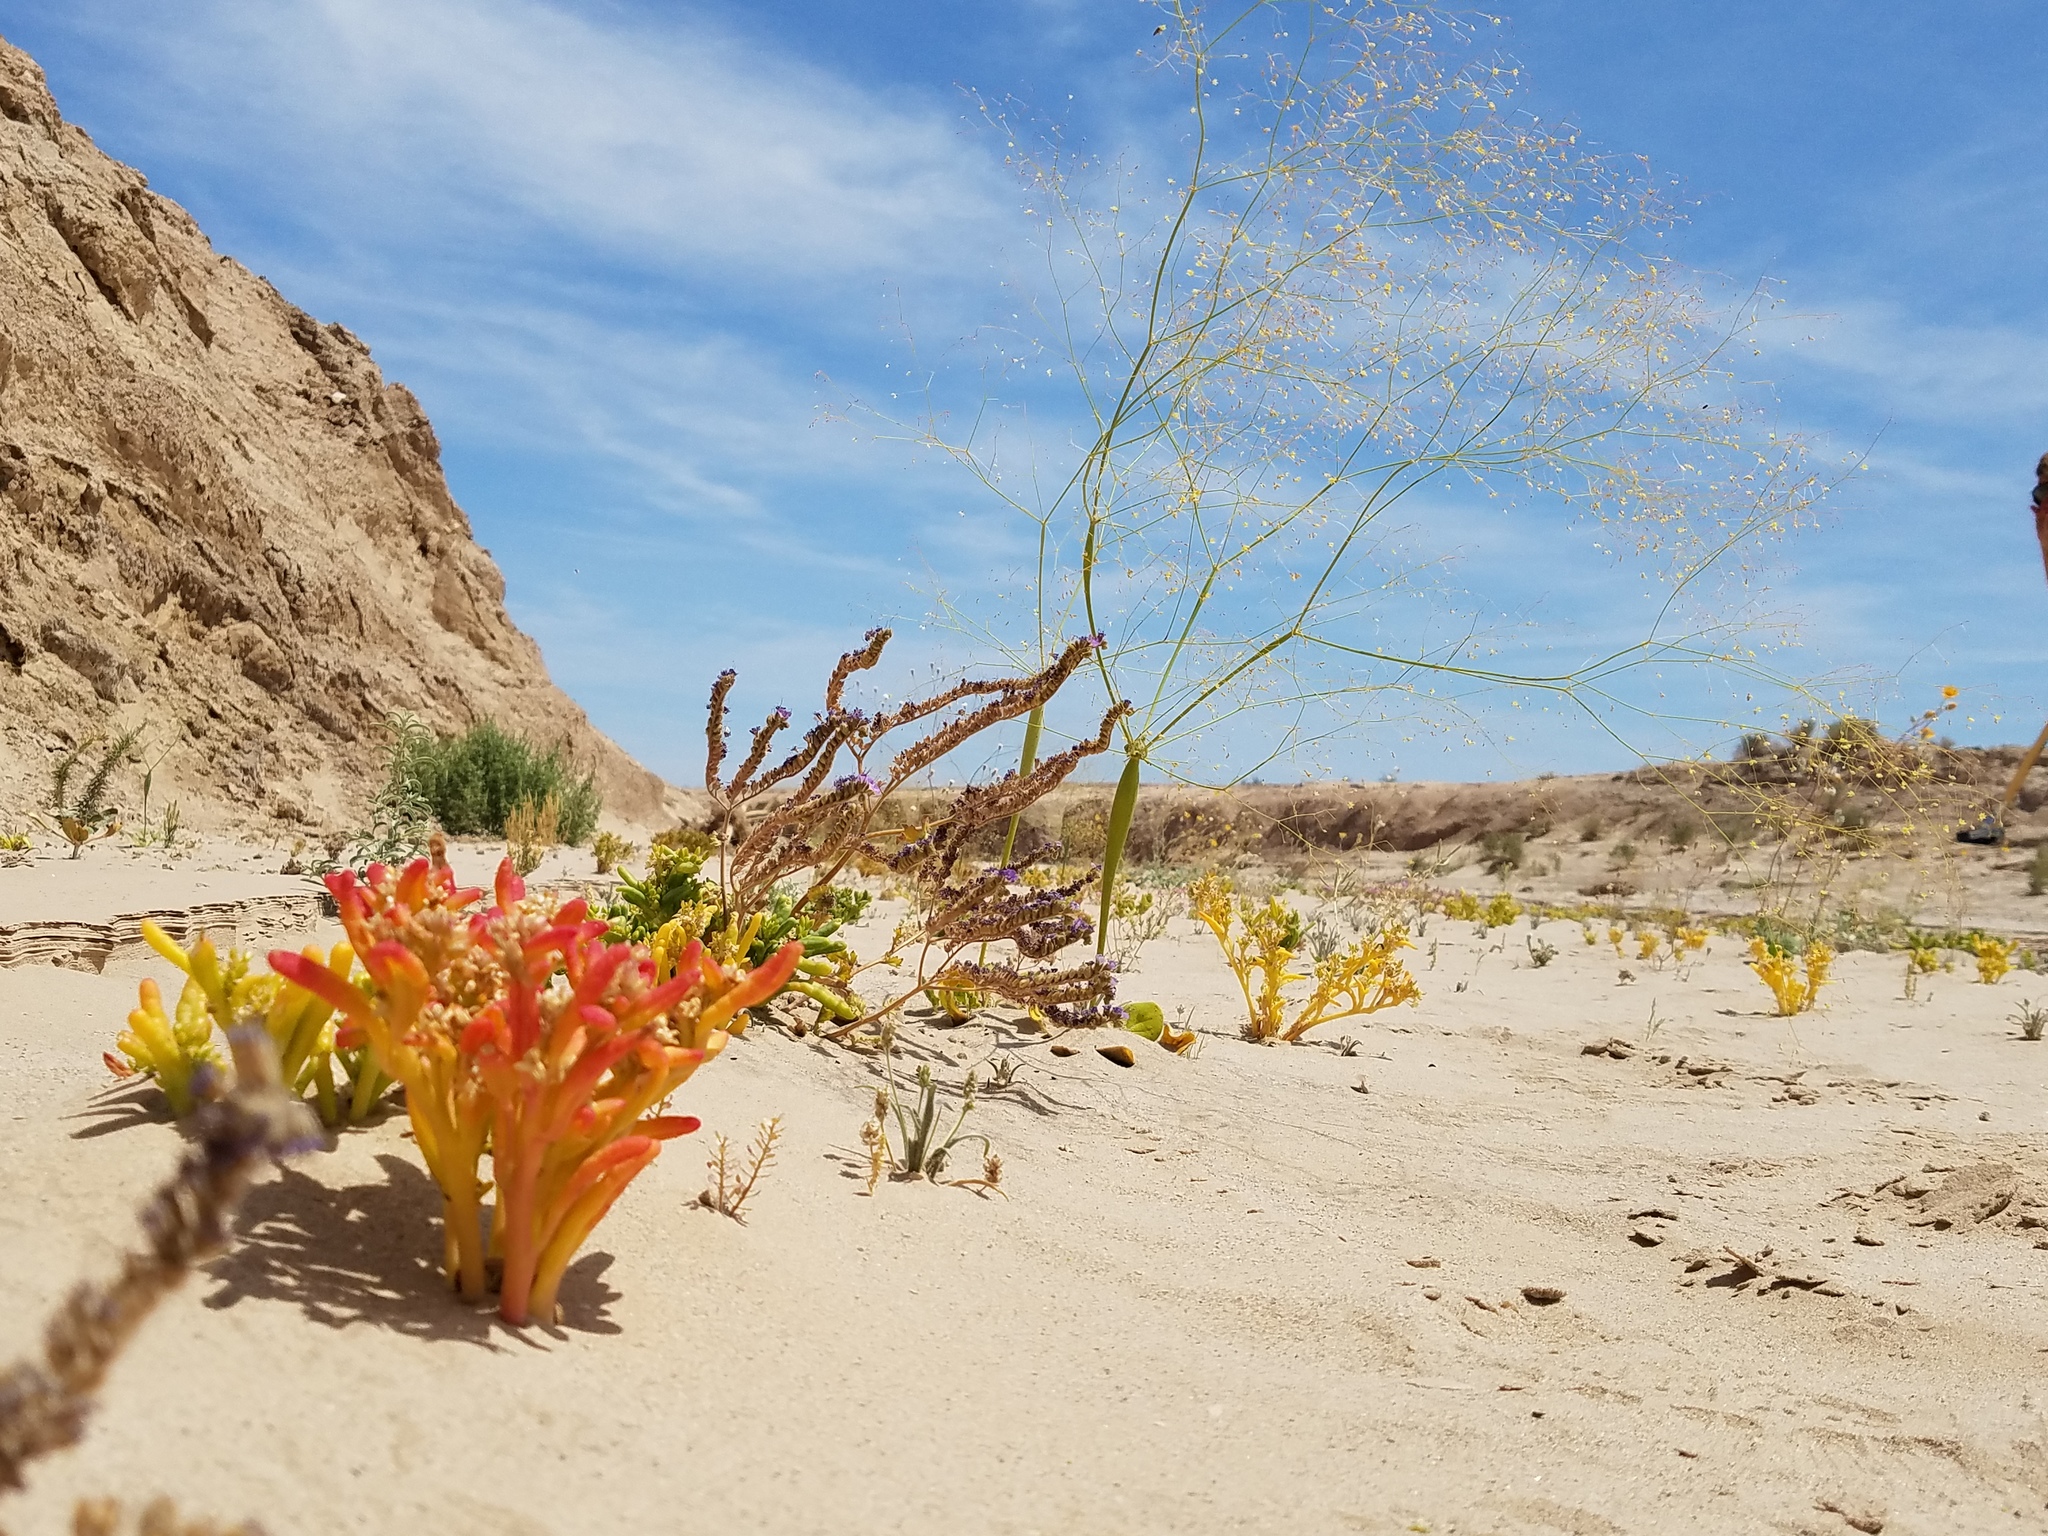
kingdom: Plantae
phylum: Tracheophyta
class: Magnoliopsida
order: Caryophyllales
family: Montiaceae
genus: Thingia
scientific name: Thingia ambigua
